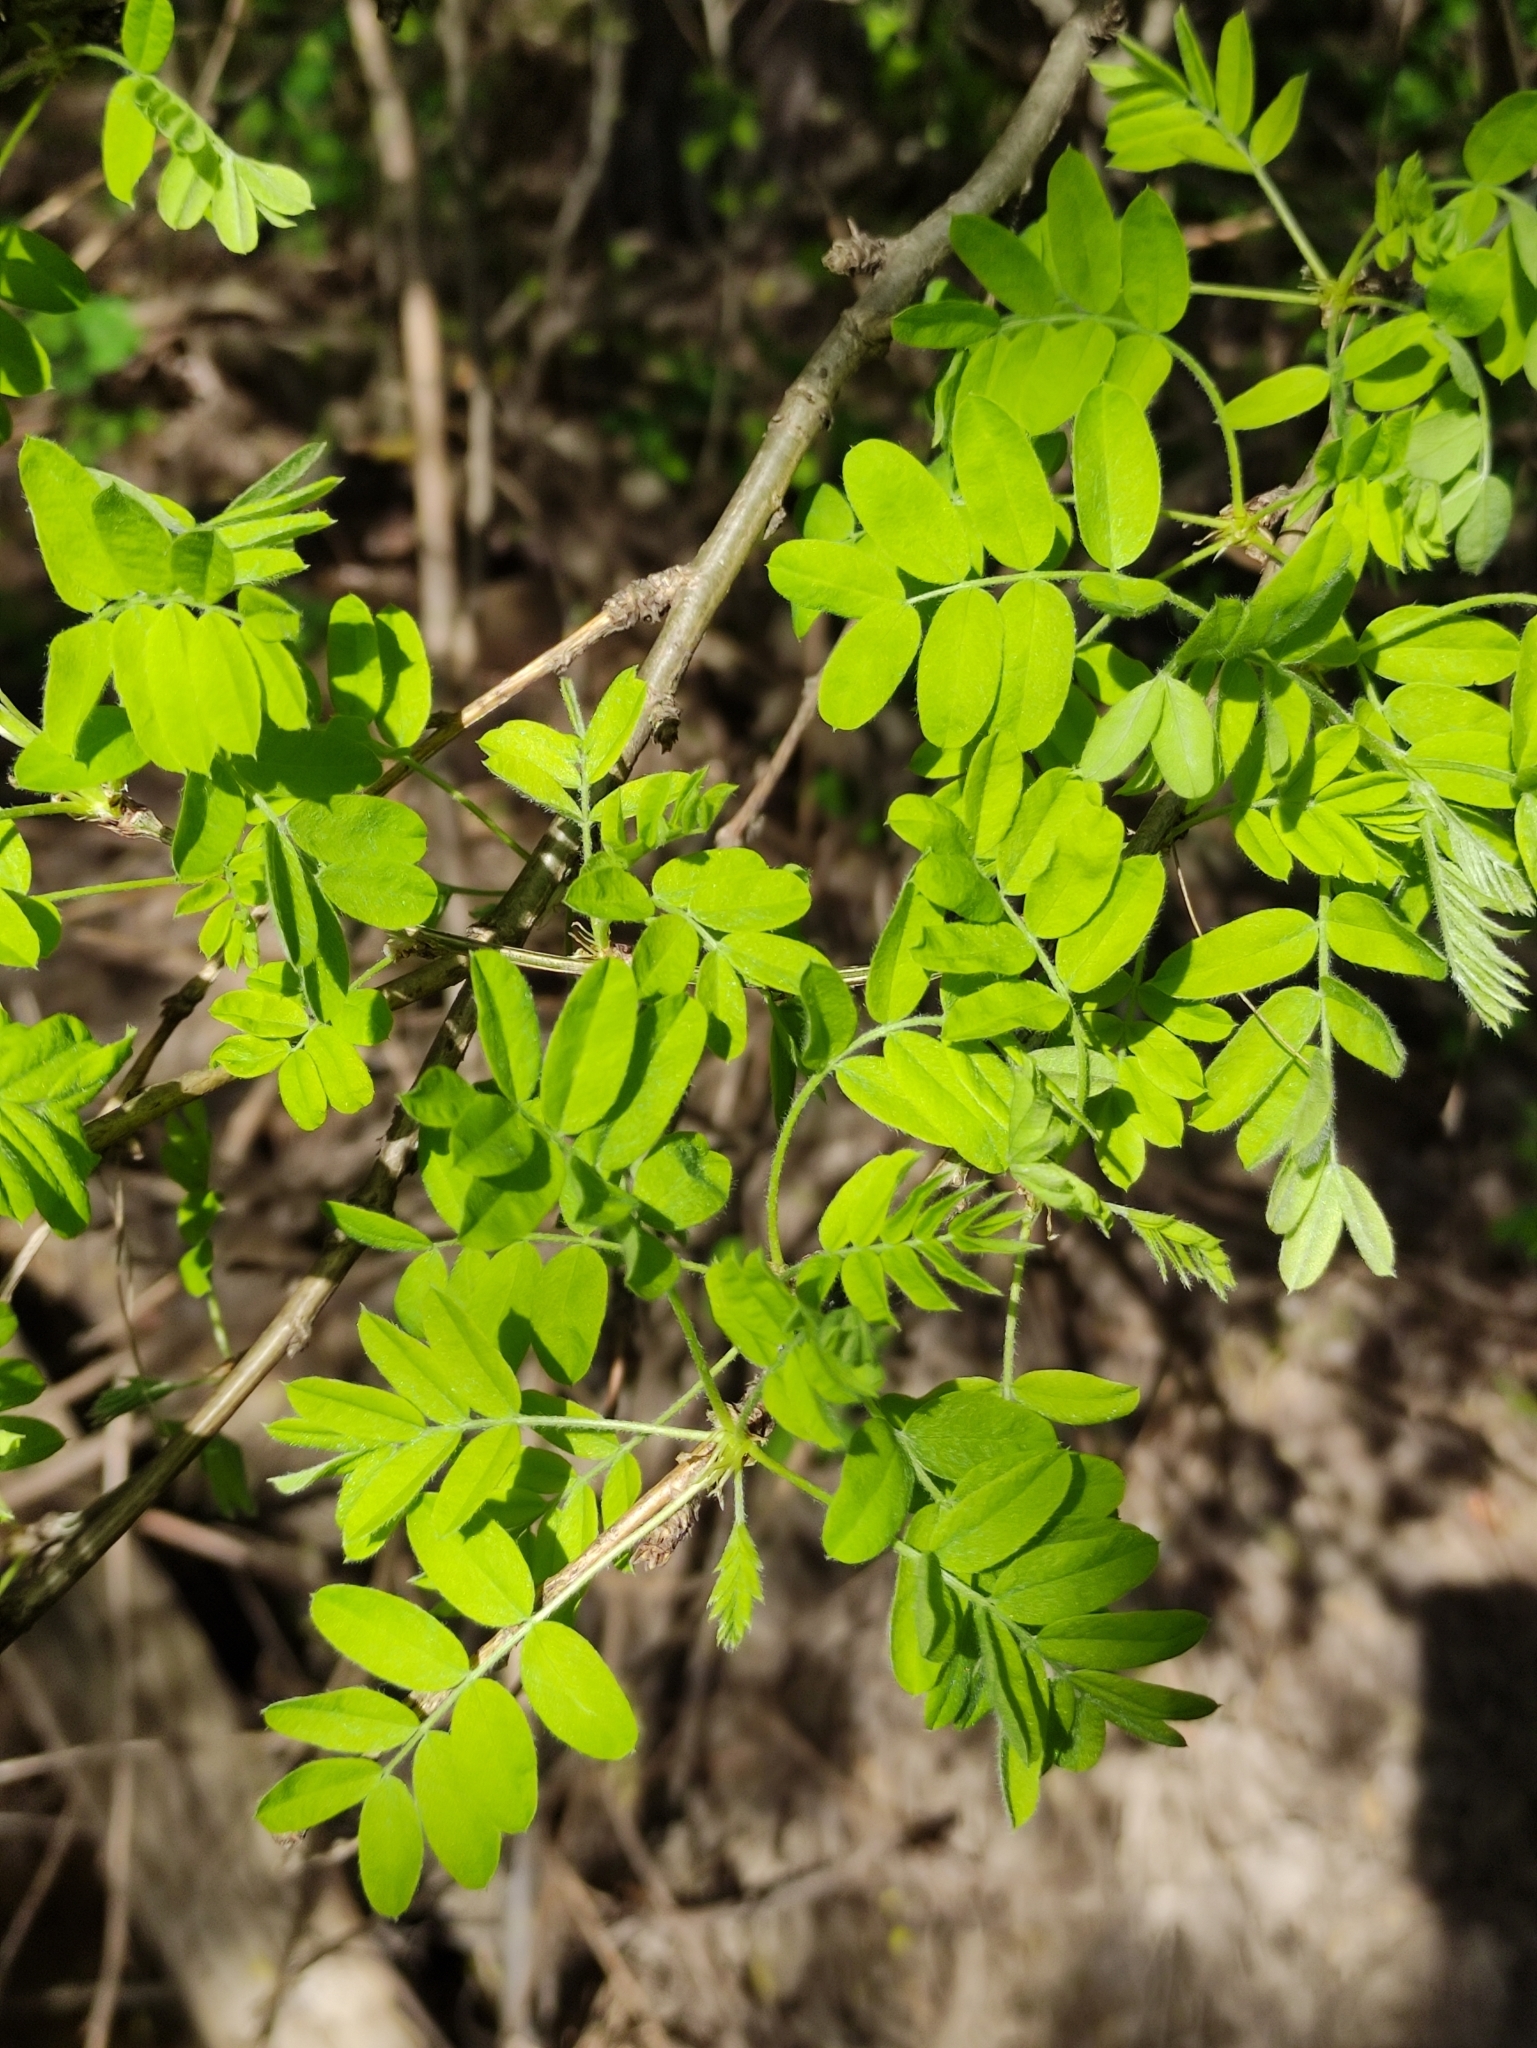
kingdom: Plantae
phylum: Tracheophyta
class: Magnoliopsida
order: Fabales
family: Fabaceae
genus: Caragana
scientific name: Caragana arborescens
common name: Siberian peashrub
